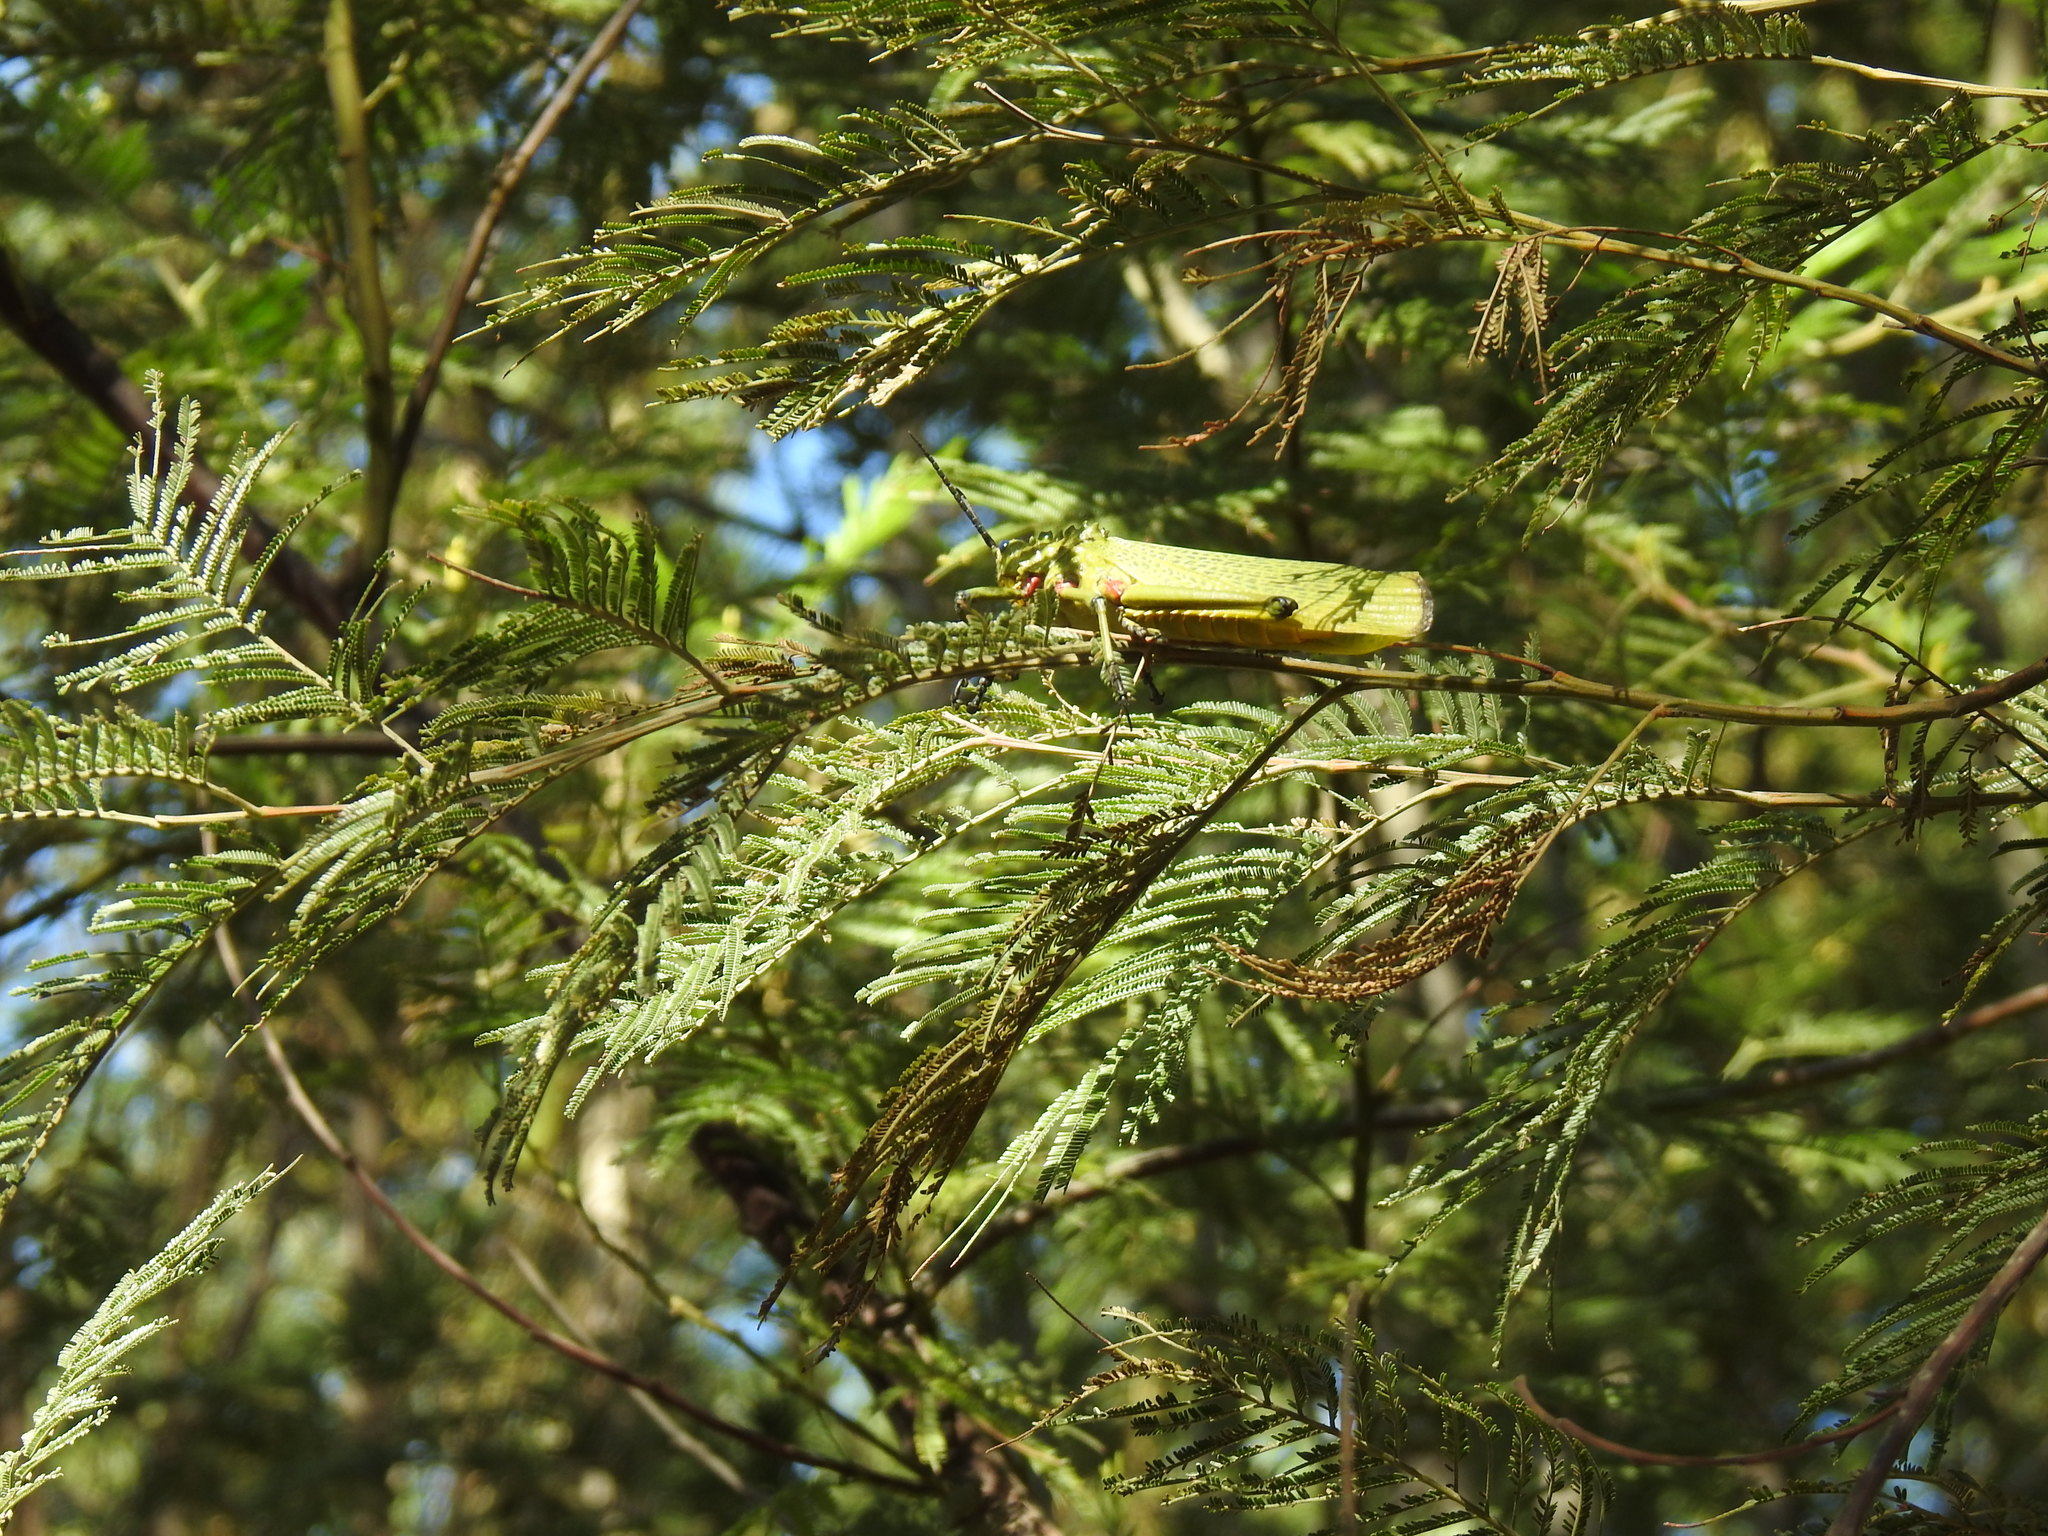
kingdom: Animalia
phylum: Arthropoda
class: Insecta
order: Orthoptera
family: Pyrgomorphidae
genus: Phymateus
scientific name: Phymateus viridipes
